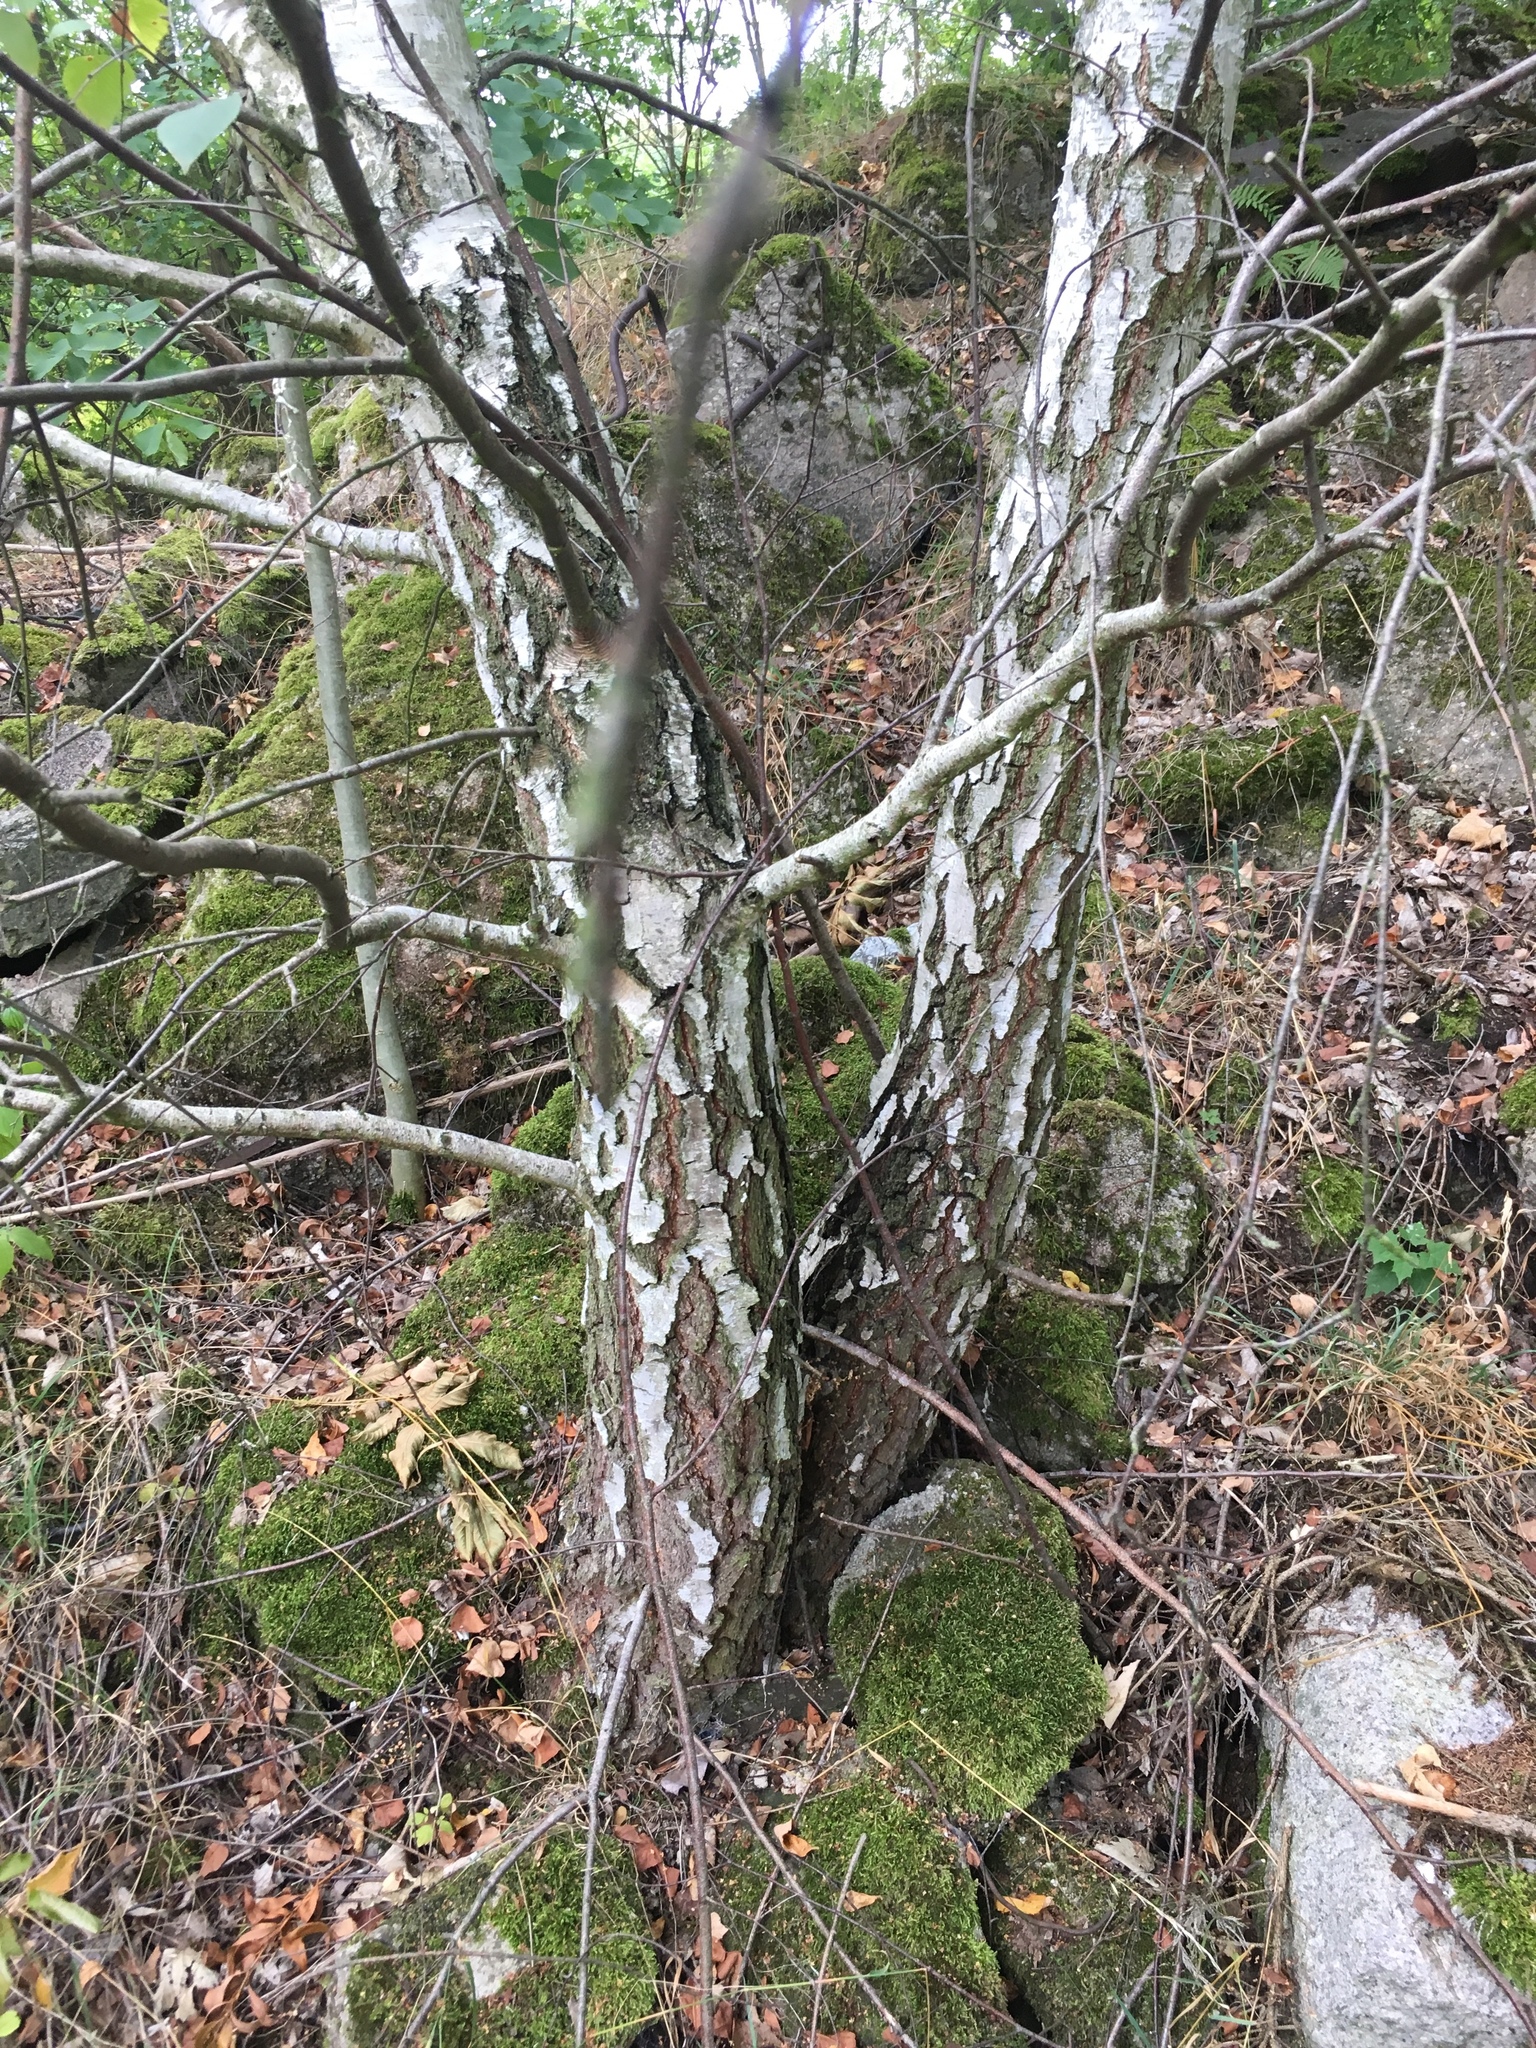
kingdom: Plantae
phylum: Tracheophyta
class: Magnoliopsida
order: Fagales
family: Betulaceae
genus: Betula
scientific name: Betula pendula
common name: Silver birch
